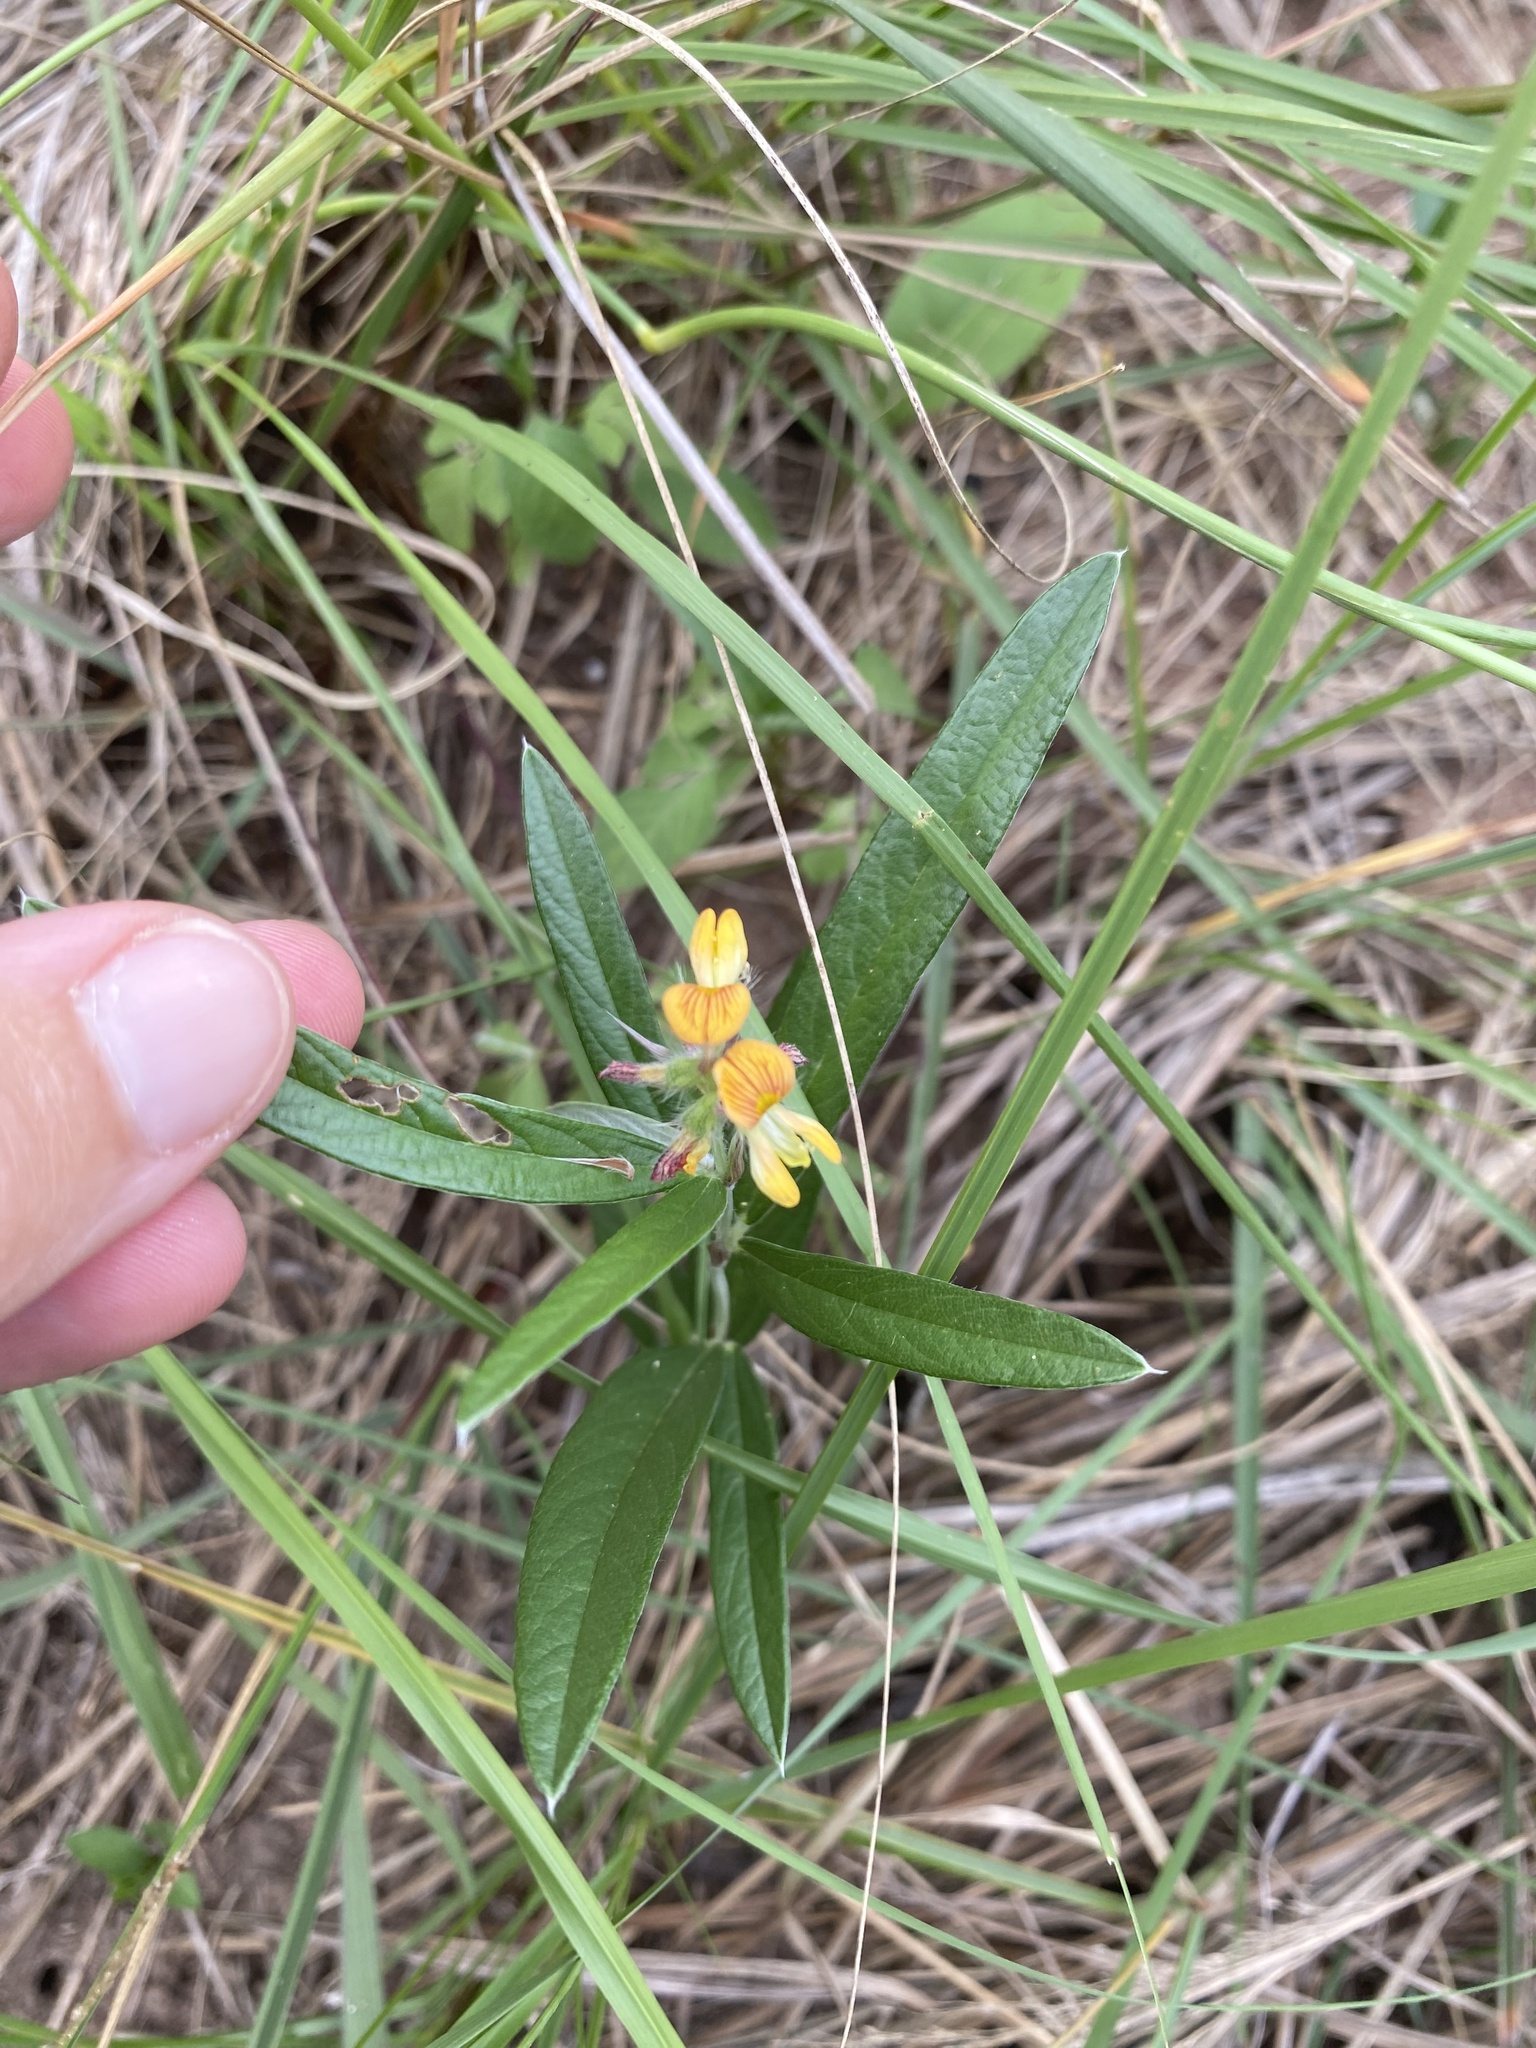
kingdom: Plantae
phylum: Tracheophyta
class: Magnoliopsida
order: Fabales
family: Fabaceae
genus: Eriosema
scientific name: Eriosema salignum
